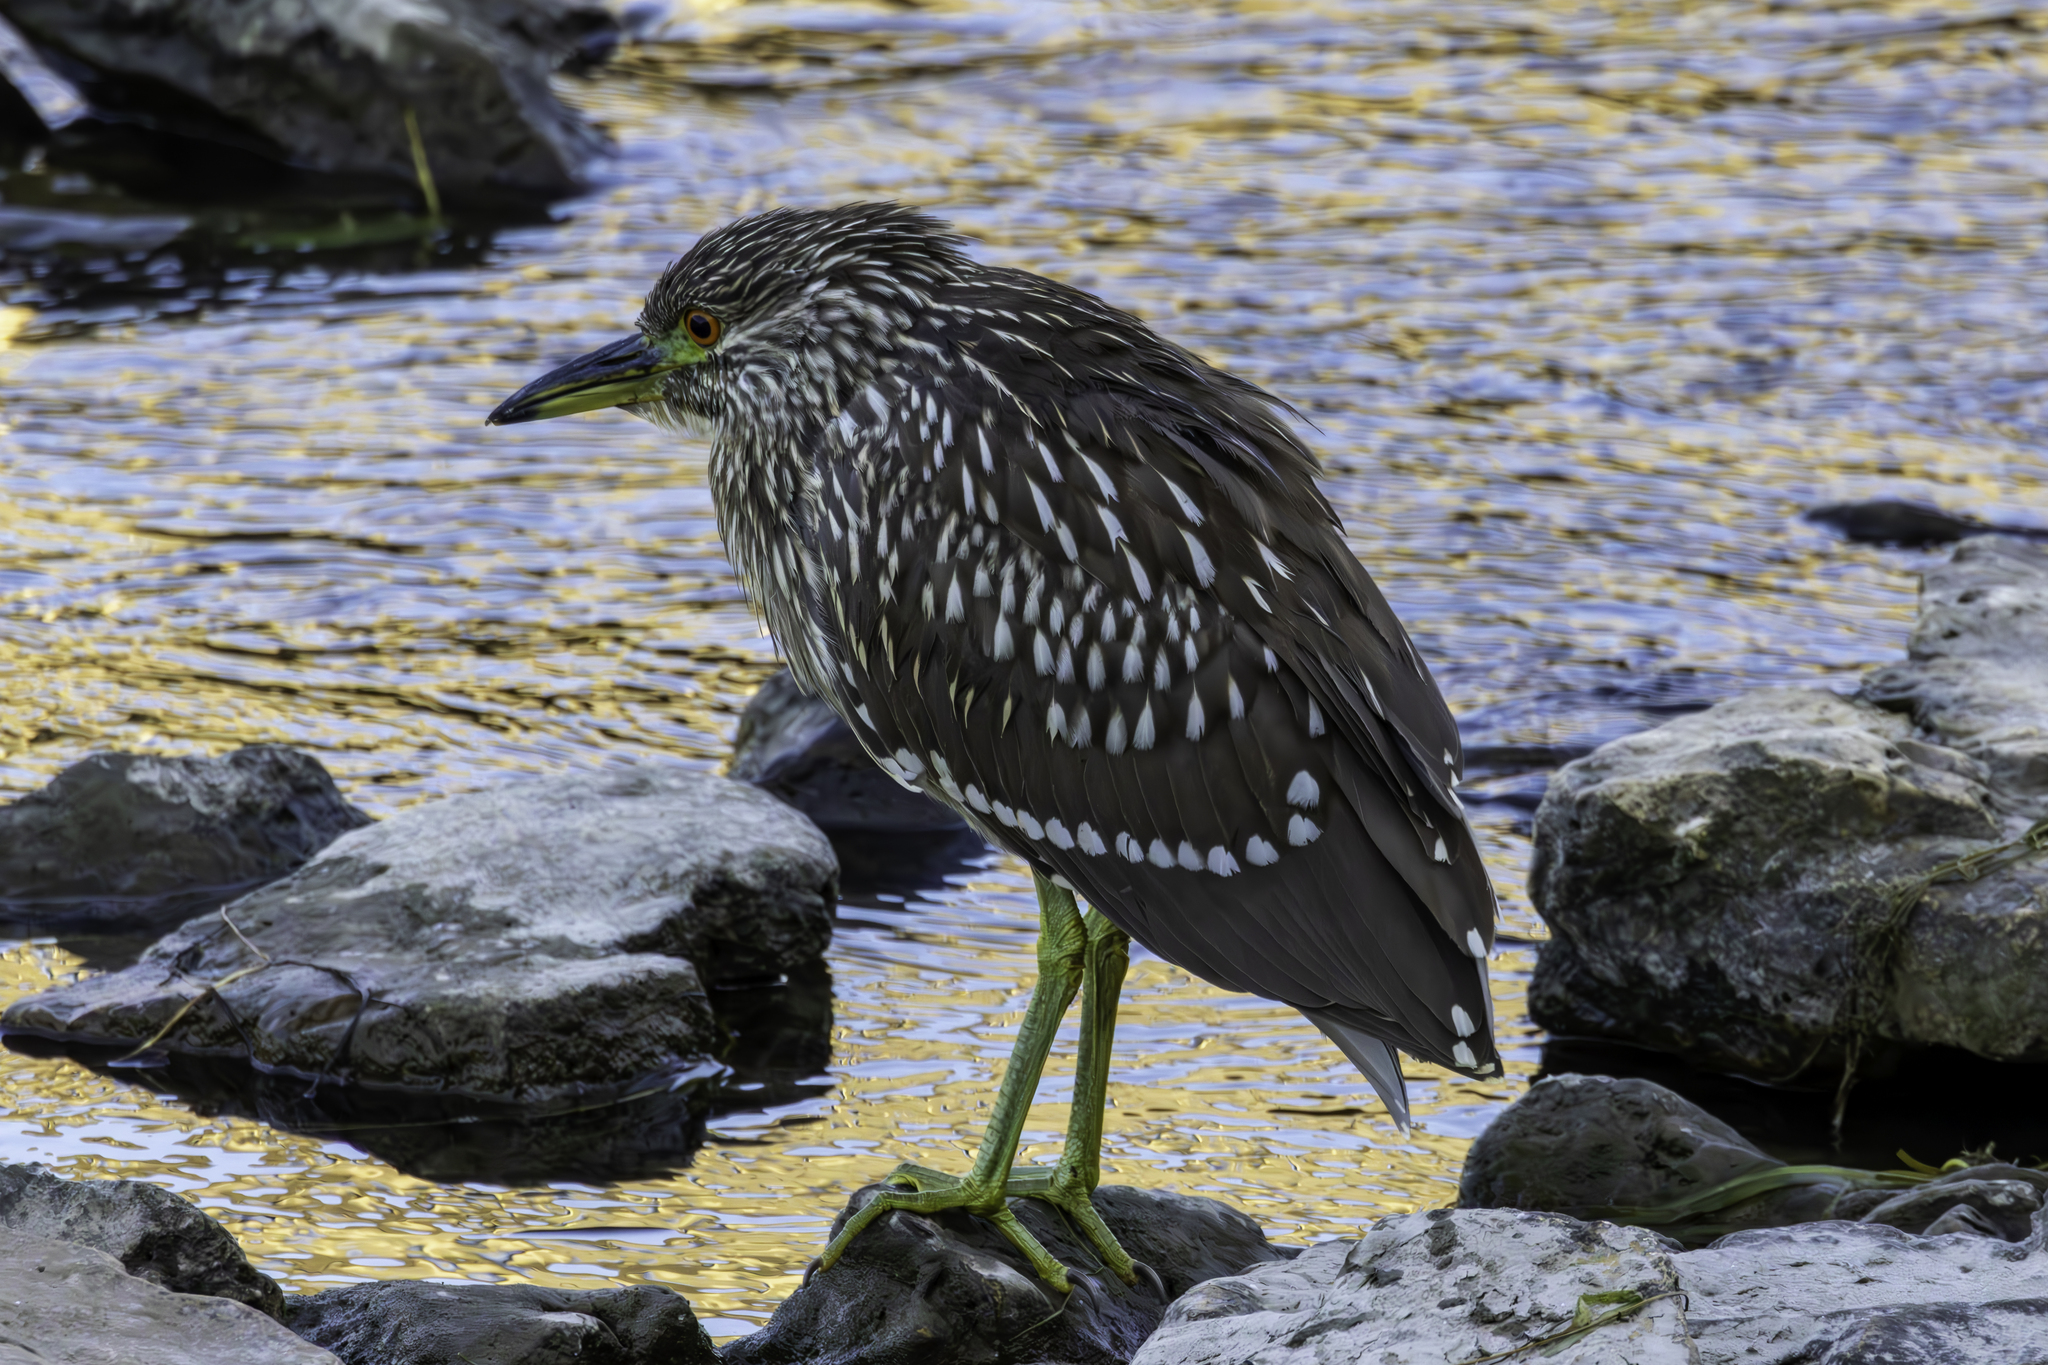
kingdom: Animalia
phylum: Chordata
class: Aves
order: Pelecaniformes
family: Ardeidae
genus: Nycticorax
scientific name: Nycticorax nycticorax
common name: Black-crowned night heron
